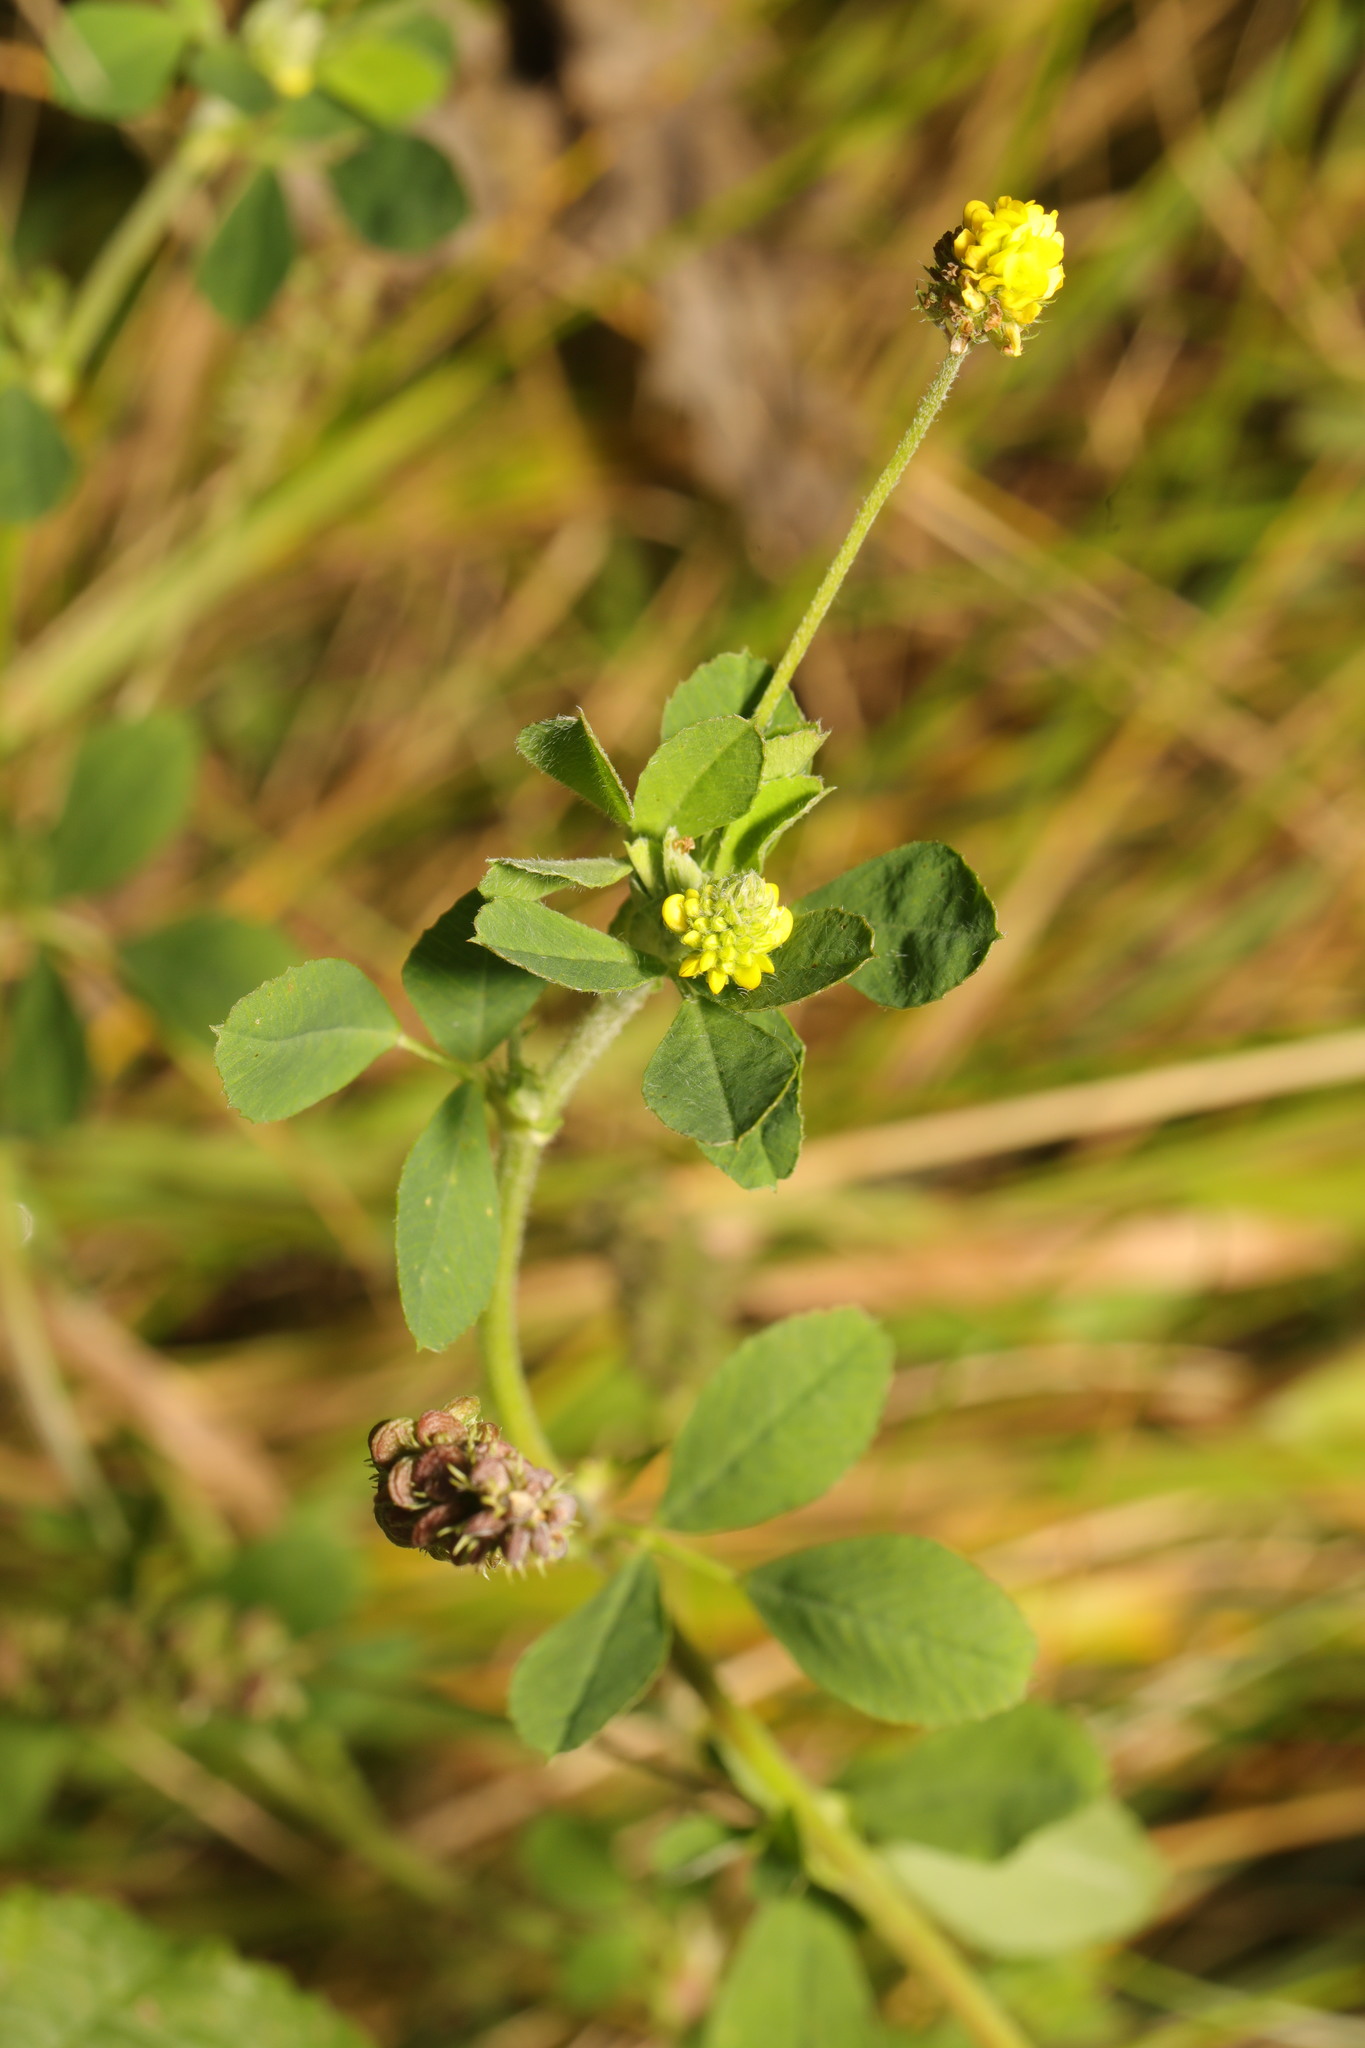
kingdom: Plantae
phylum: Tracheophyta
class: Magnoliopsida
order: Fabales
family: Fabaceae
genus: Medicago
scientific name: Medicago lupulina
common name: Black medick
